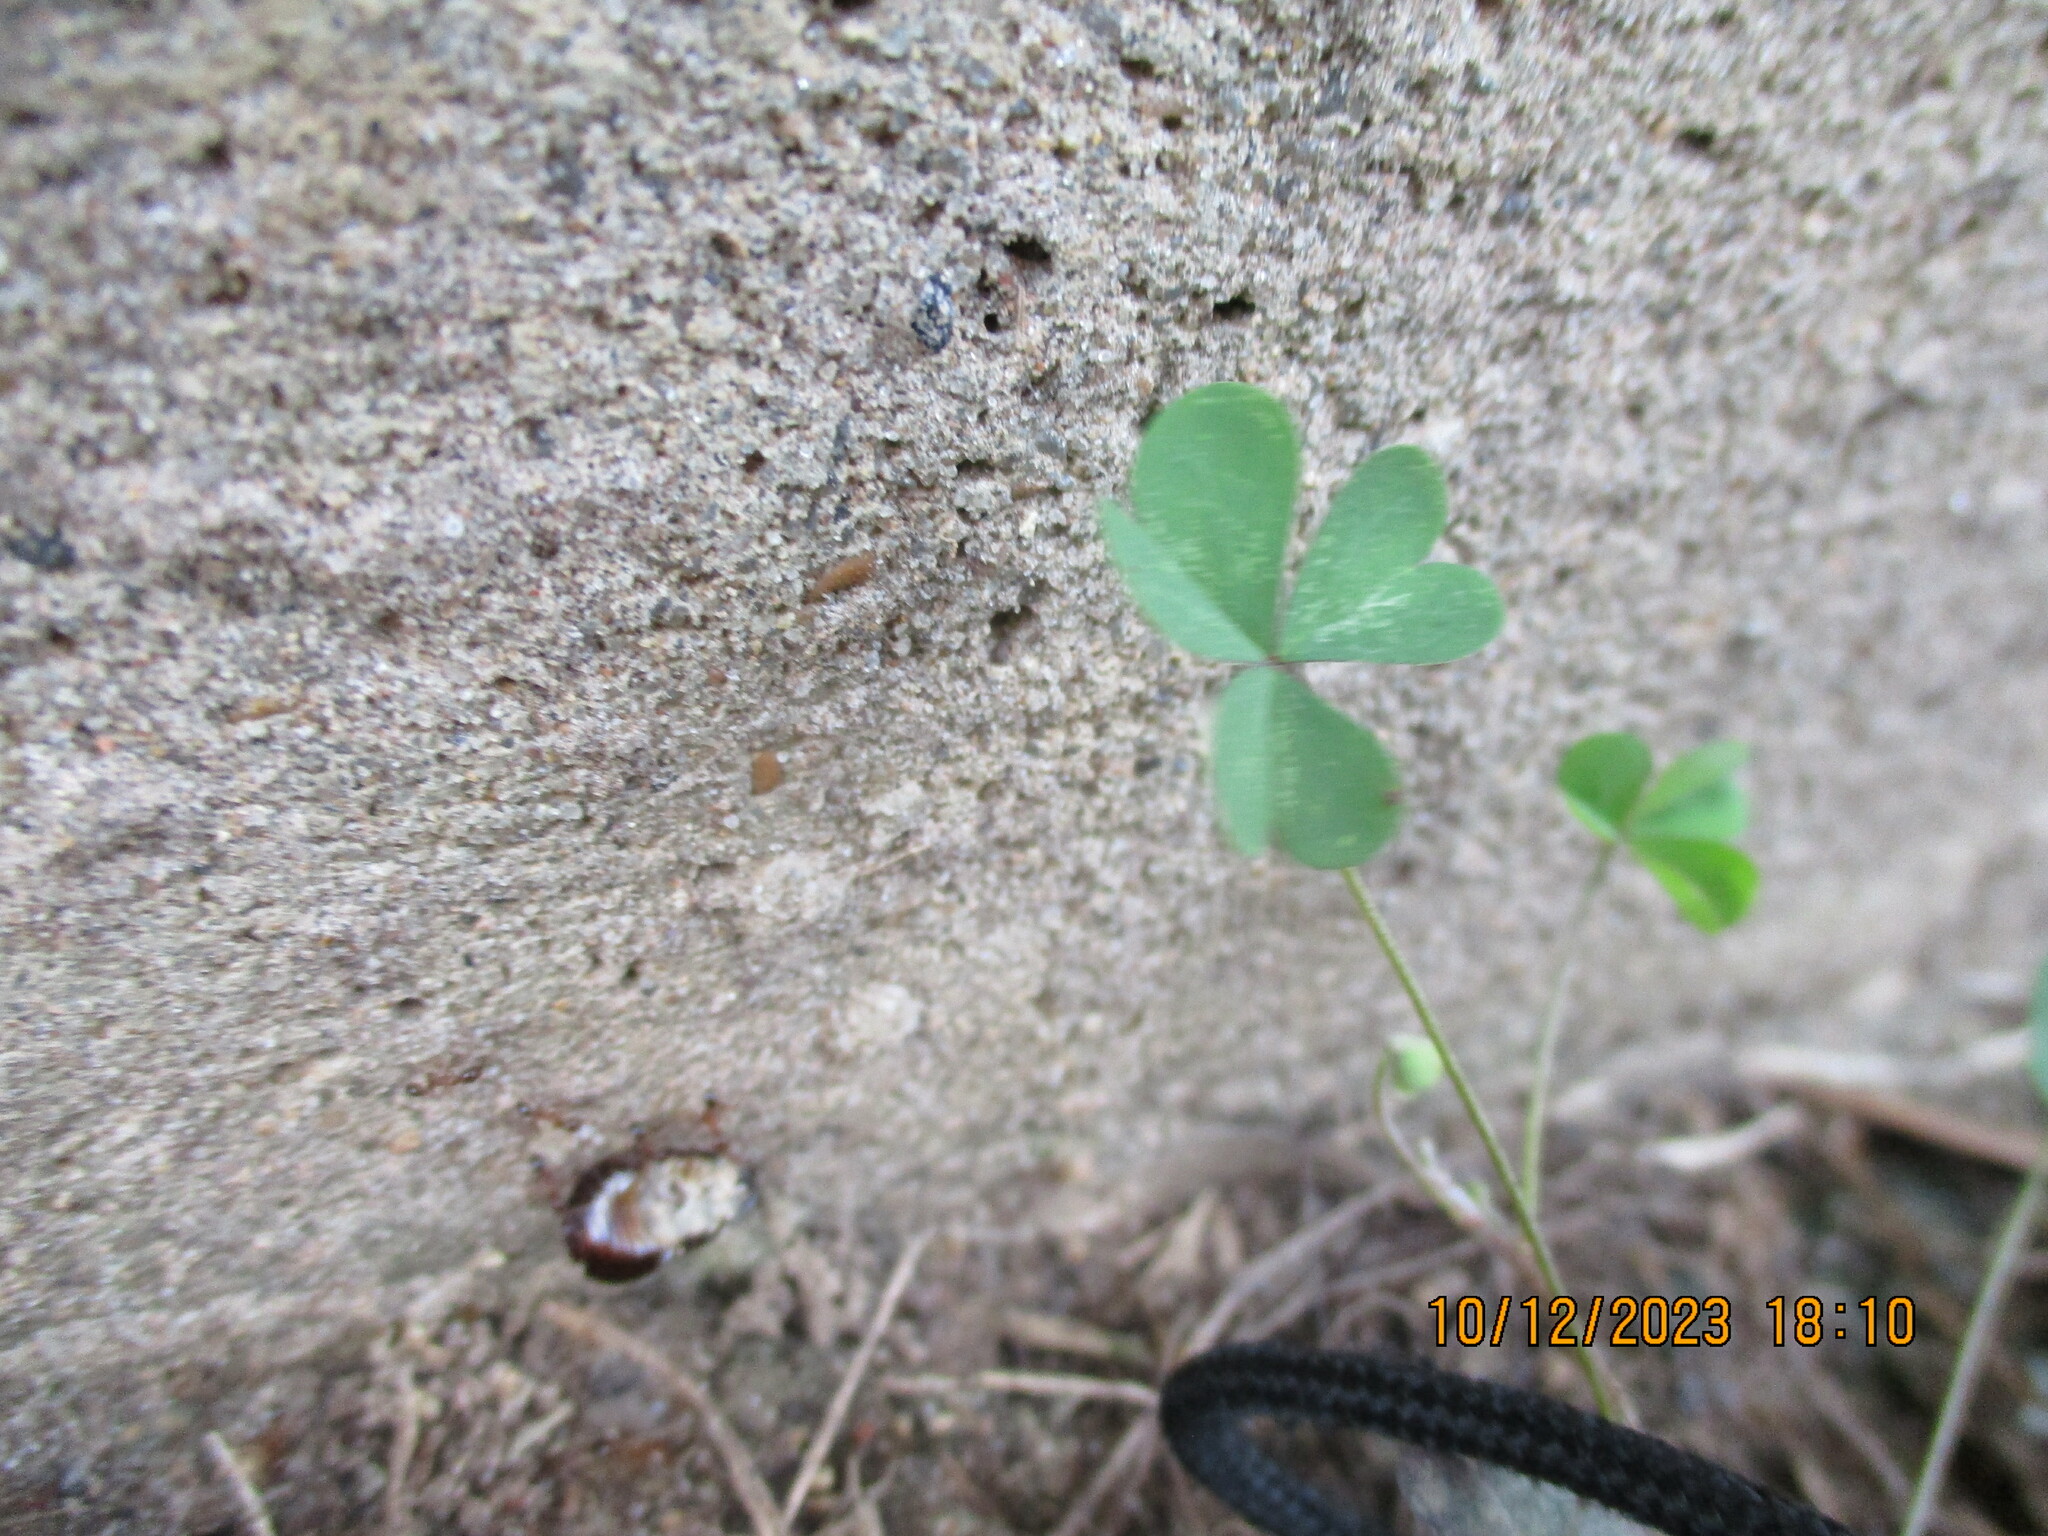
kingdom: Plantae
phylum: Tracheophyta
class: Magnoliopsida
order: Oxalidales
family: Oxalidaceae
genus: Oxalis
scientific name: Oxalis corniculata
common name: Procumbent yellow-sorrel
